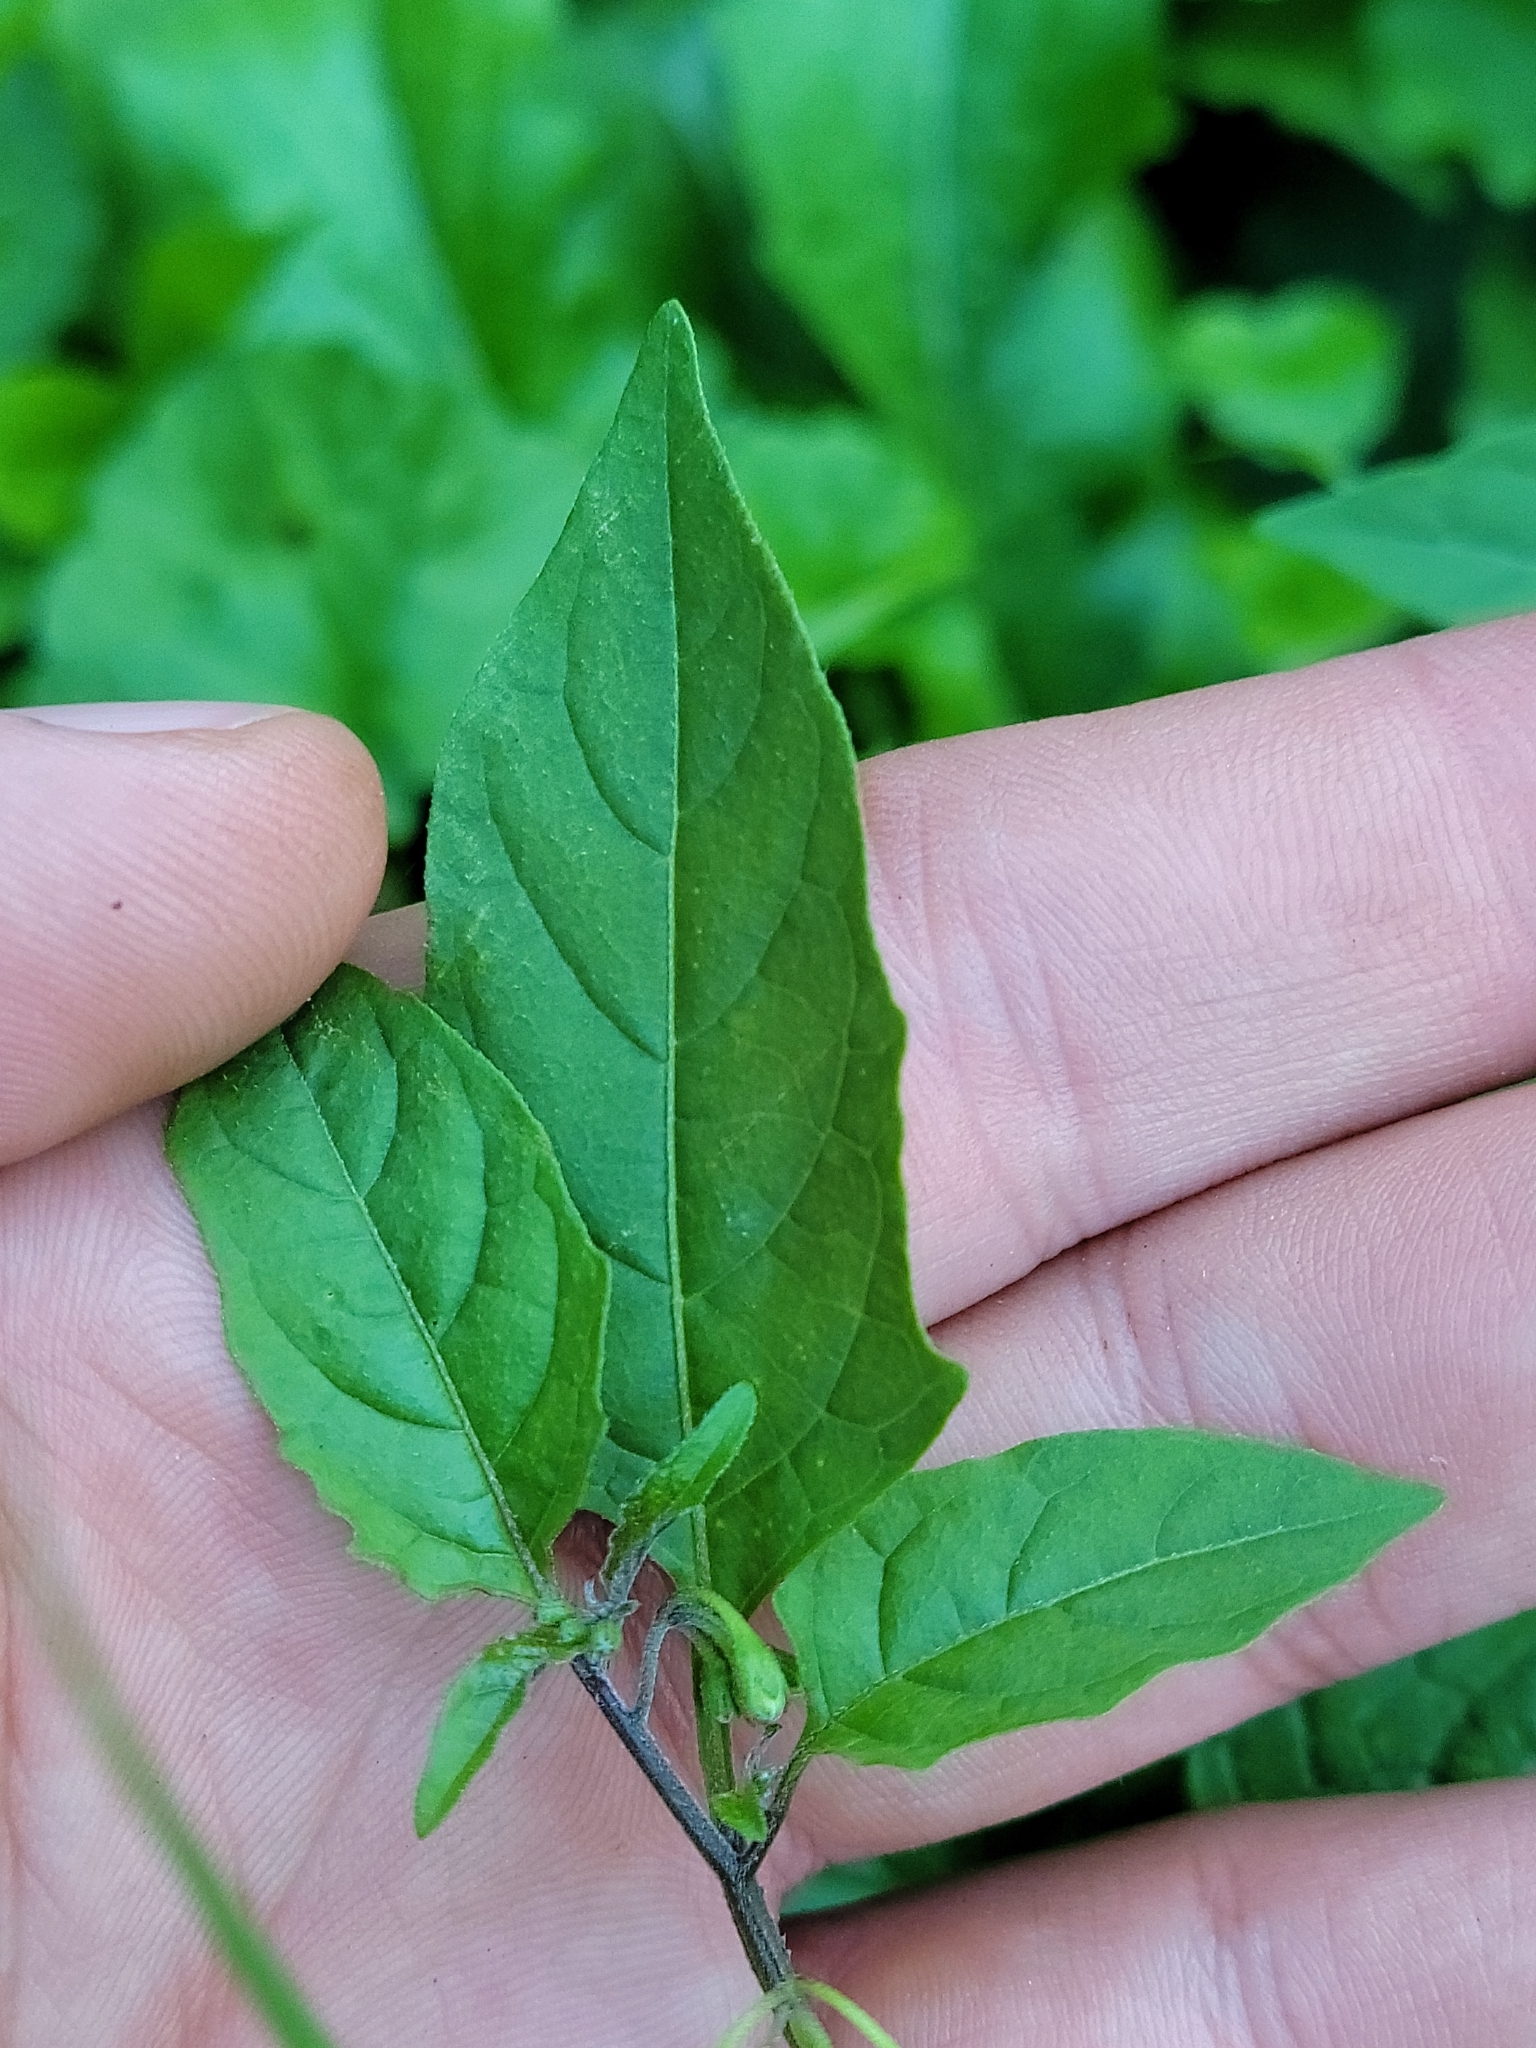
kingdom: Plantae
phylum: Tracheophyta
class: Magnoliopsida
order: Solanales
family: Solanaceae
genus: Solanum
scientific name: Solanum emulans
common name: Eastern black nightshade
